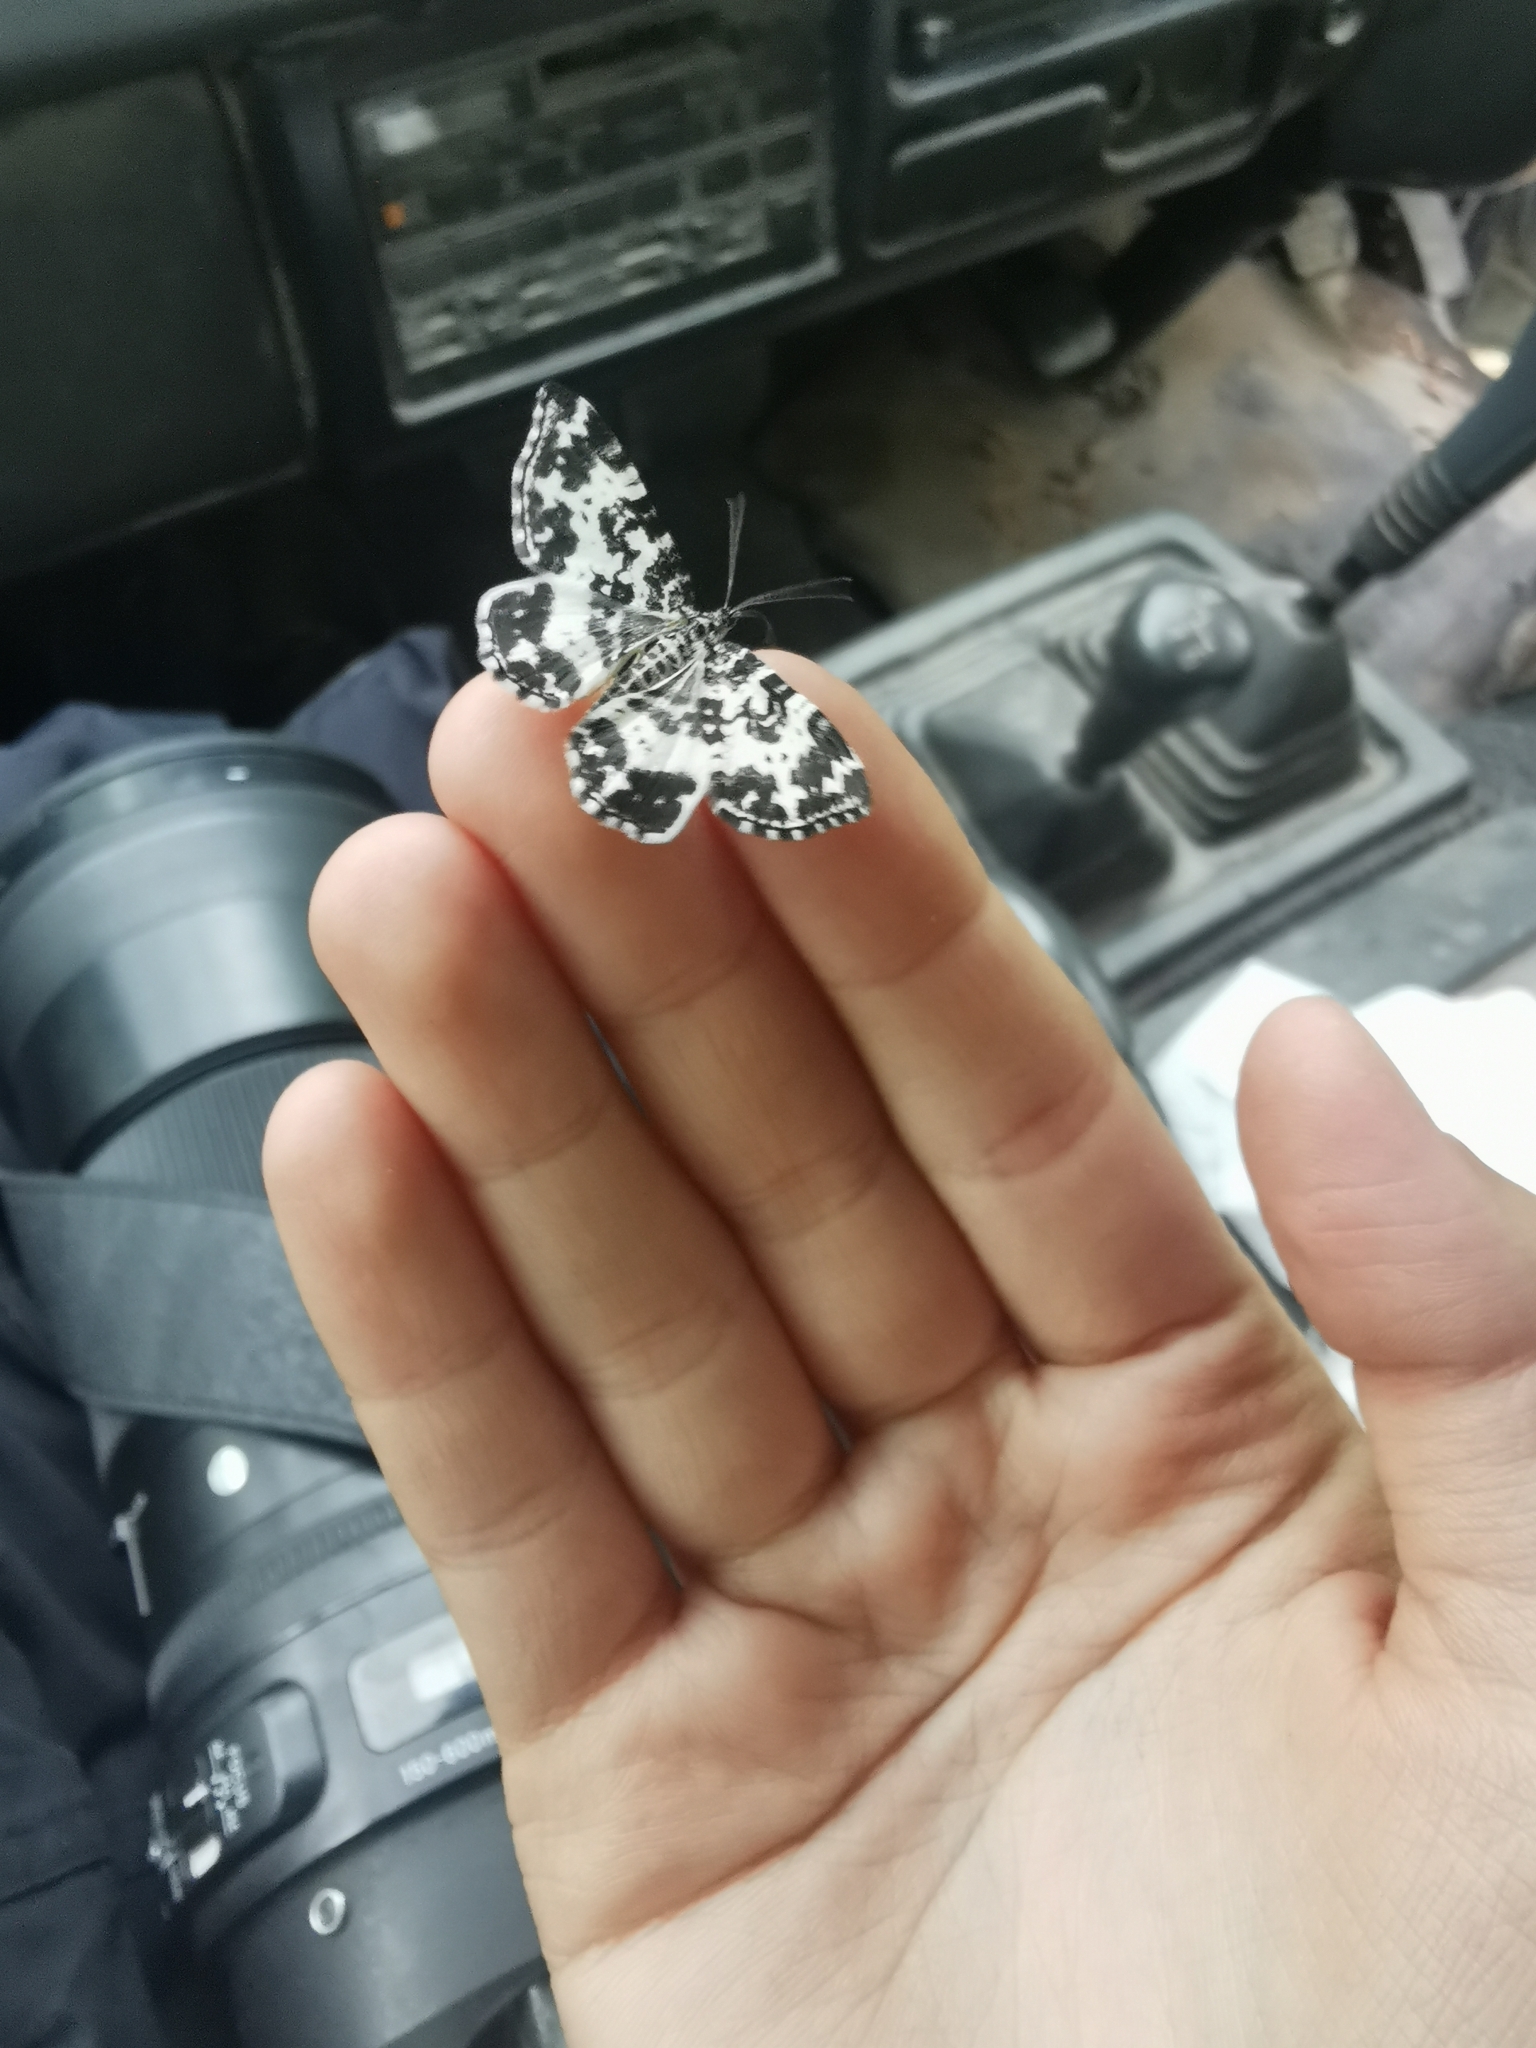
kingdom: Animalia
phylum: Arthropoda
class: Insecta
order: Lepidoptera
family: Geometridae
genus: Rheumaptera
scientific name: Rheumaptera hastata
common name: Argent & sable
